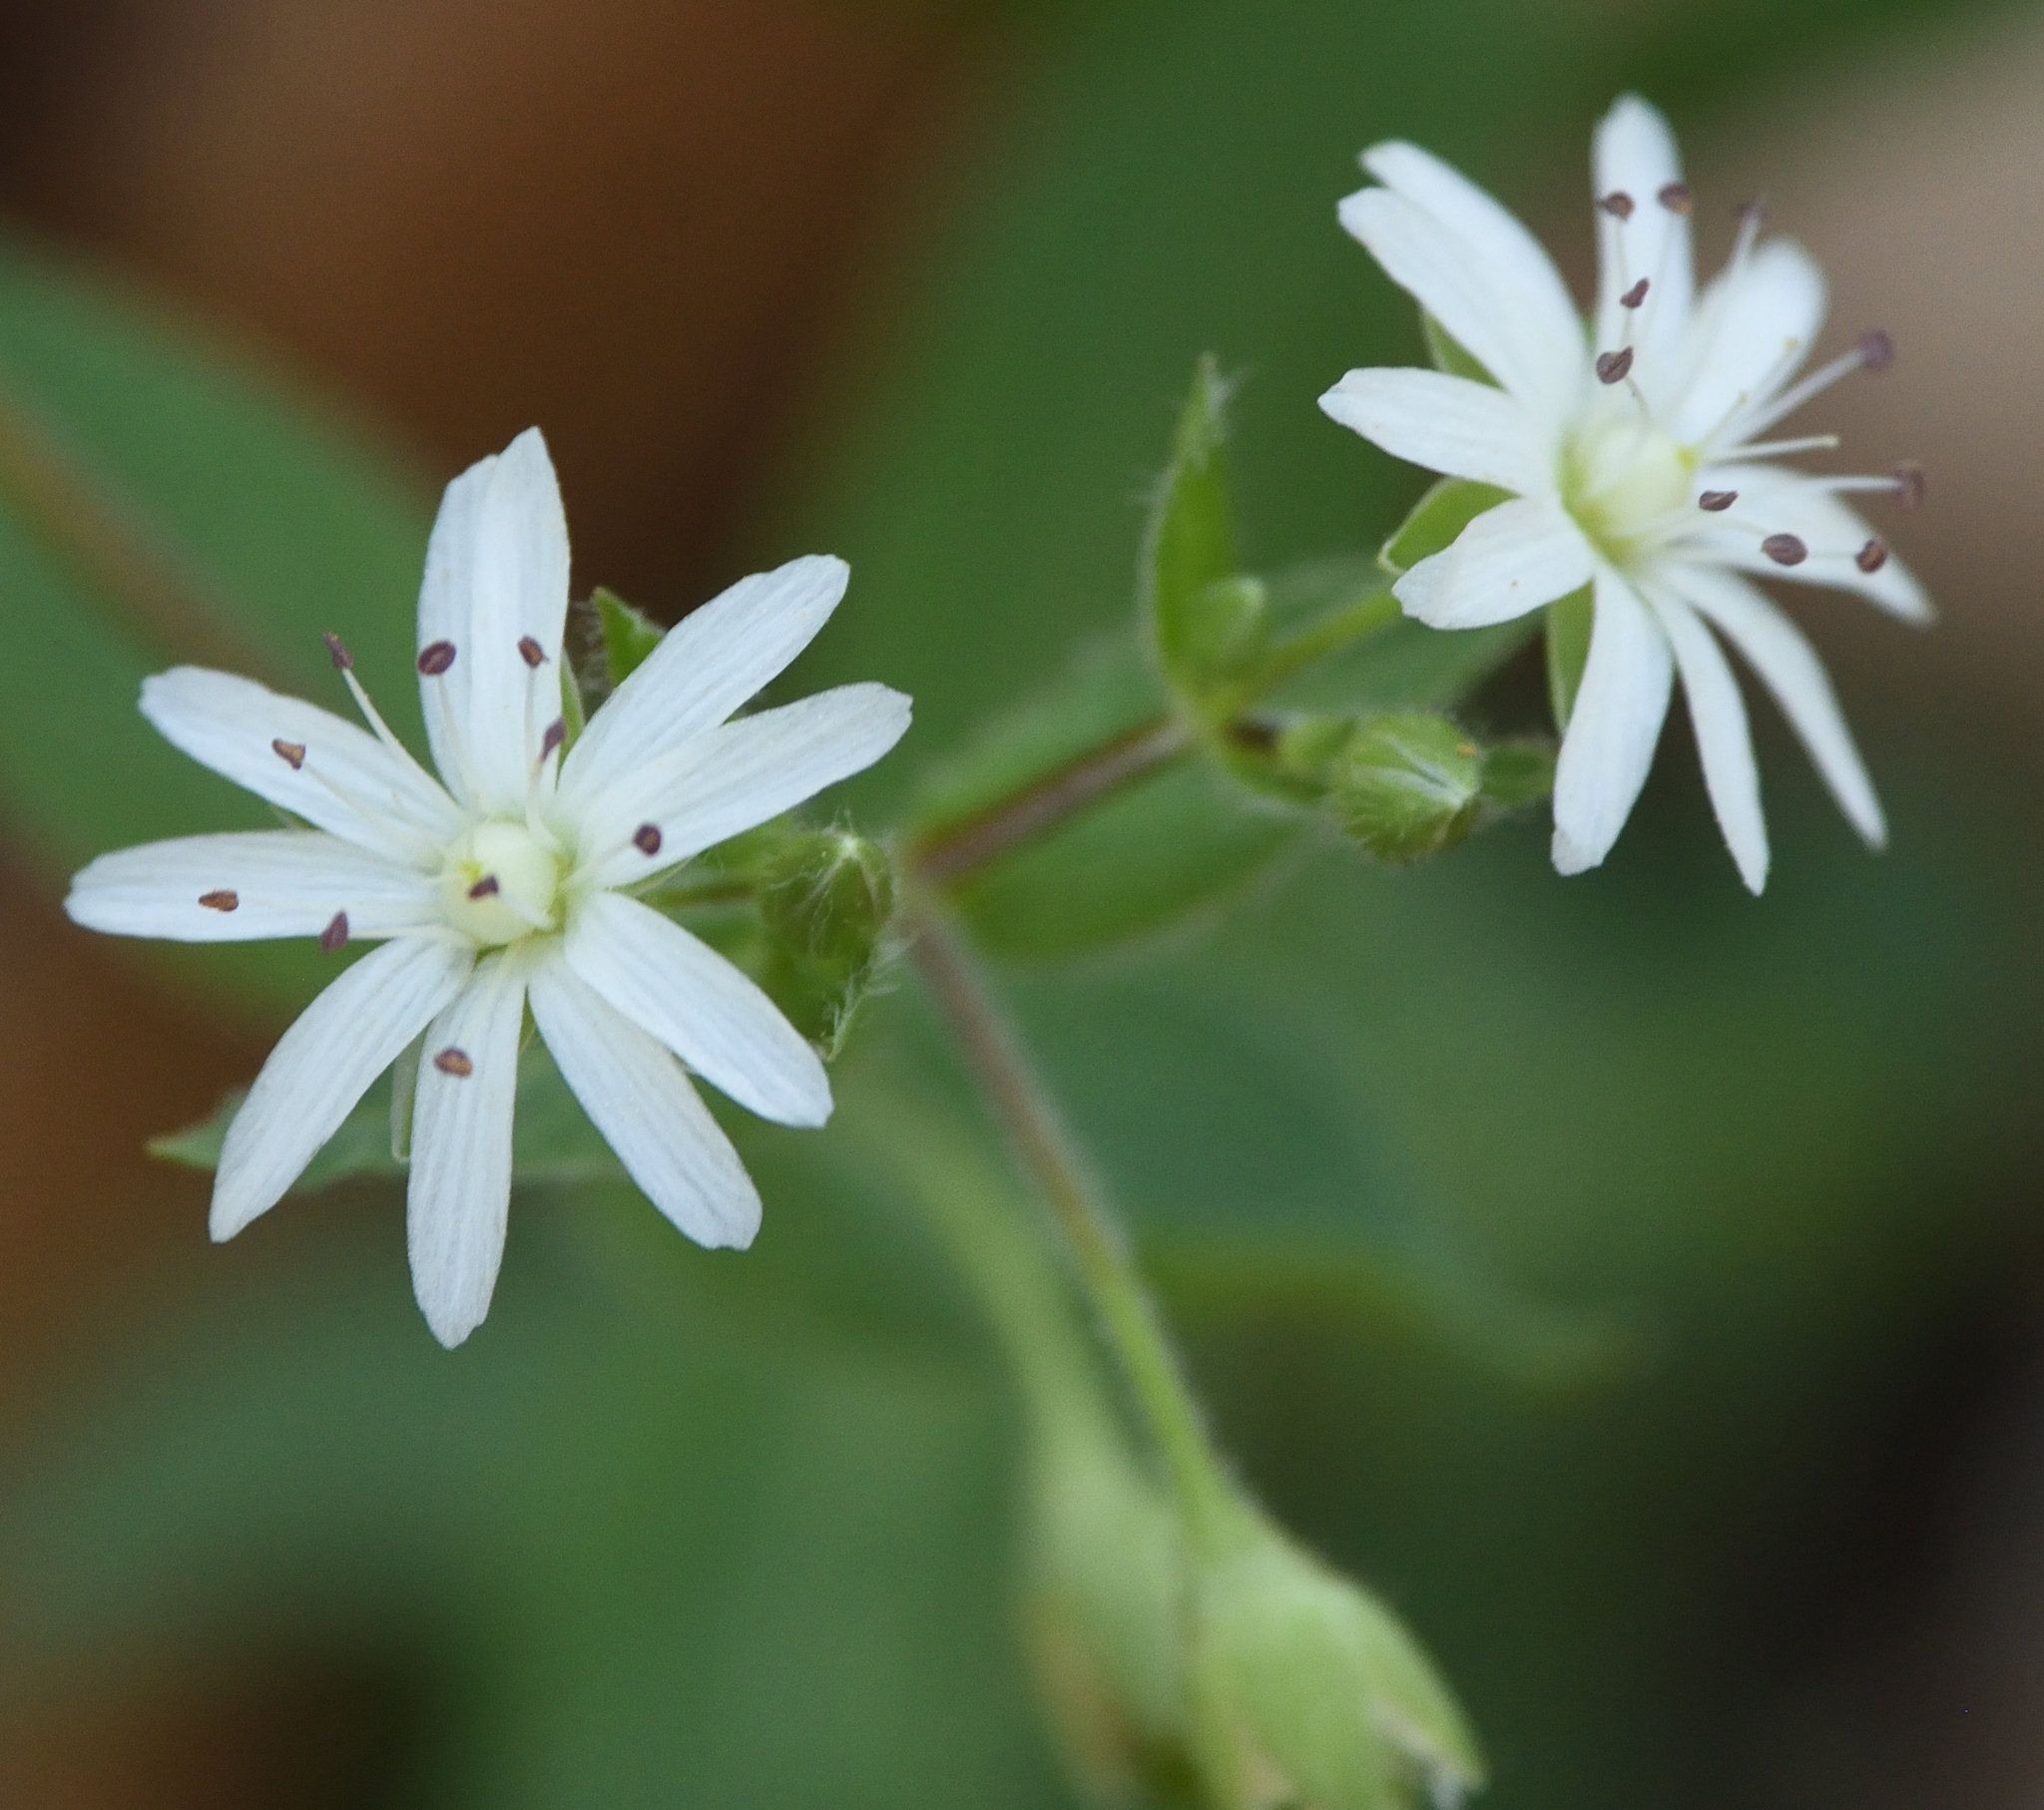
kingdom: Plantae
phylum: Tracheophyta
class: Magnoliopsida
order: Caryophyllales
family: Caryophyllaceae
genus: Stellaria
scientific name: Stellaria pubera
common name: Star chickweed
